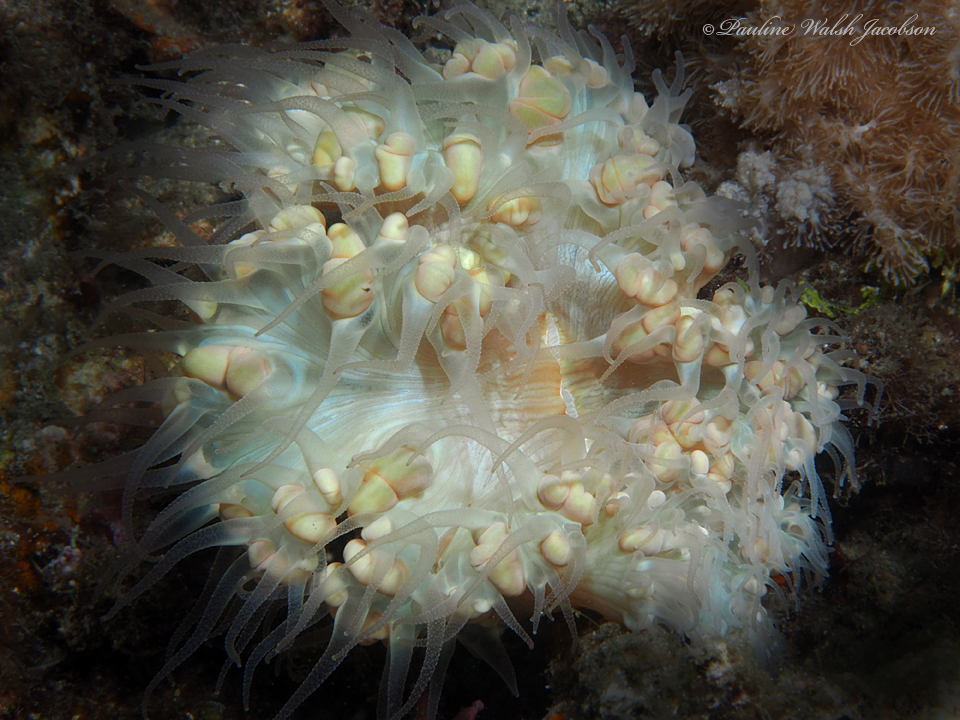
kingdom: Animalia
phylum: Cnidaria
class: Anthozoa
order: Scleractinia
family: Plerogyridae
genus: Plerogyra
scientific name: Plerogyra sinuosa
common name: Bubble coral
